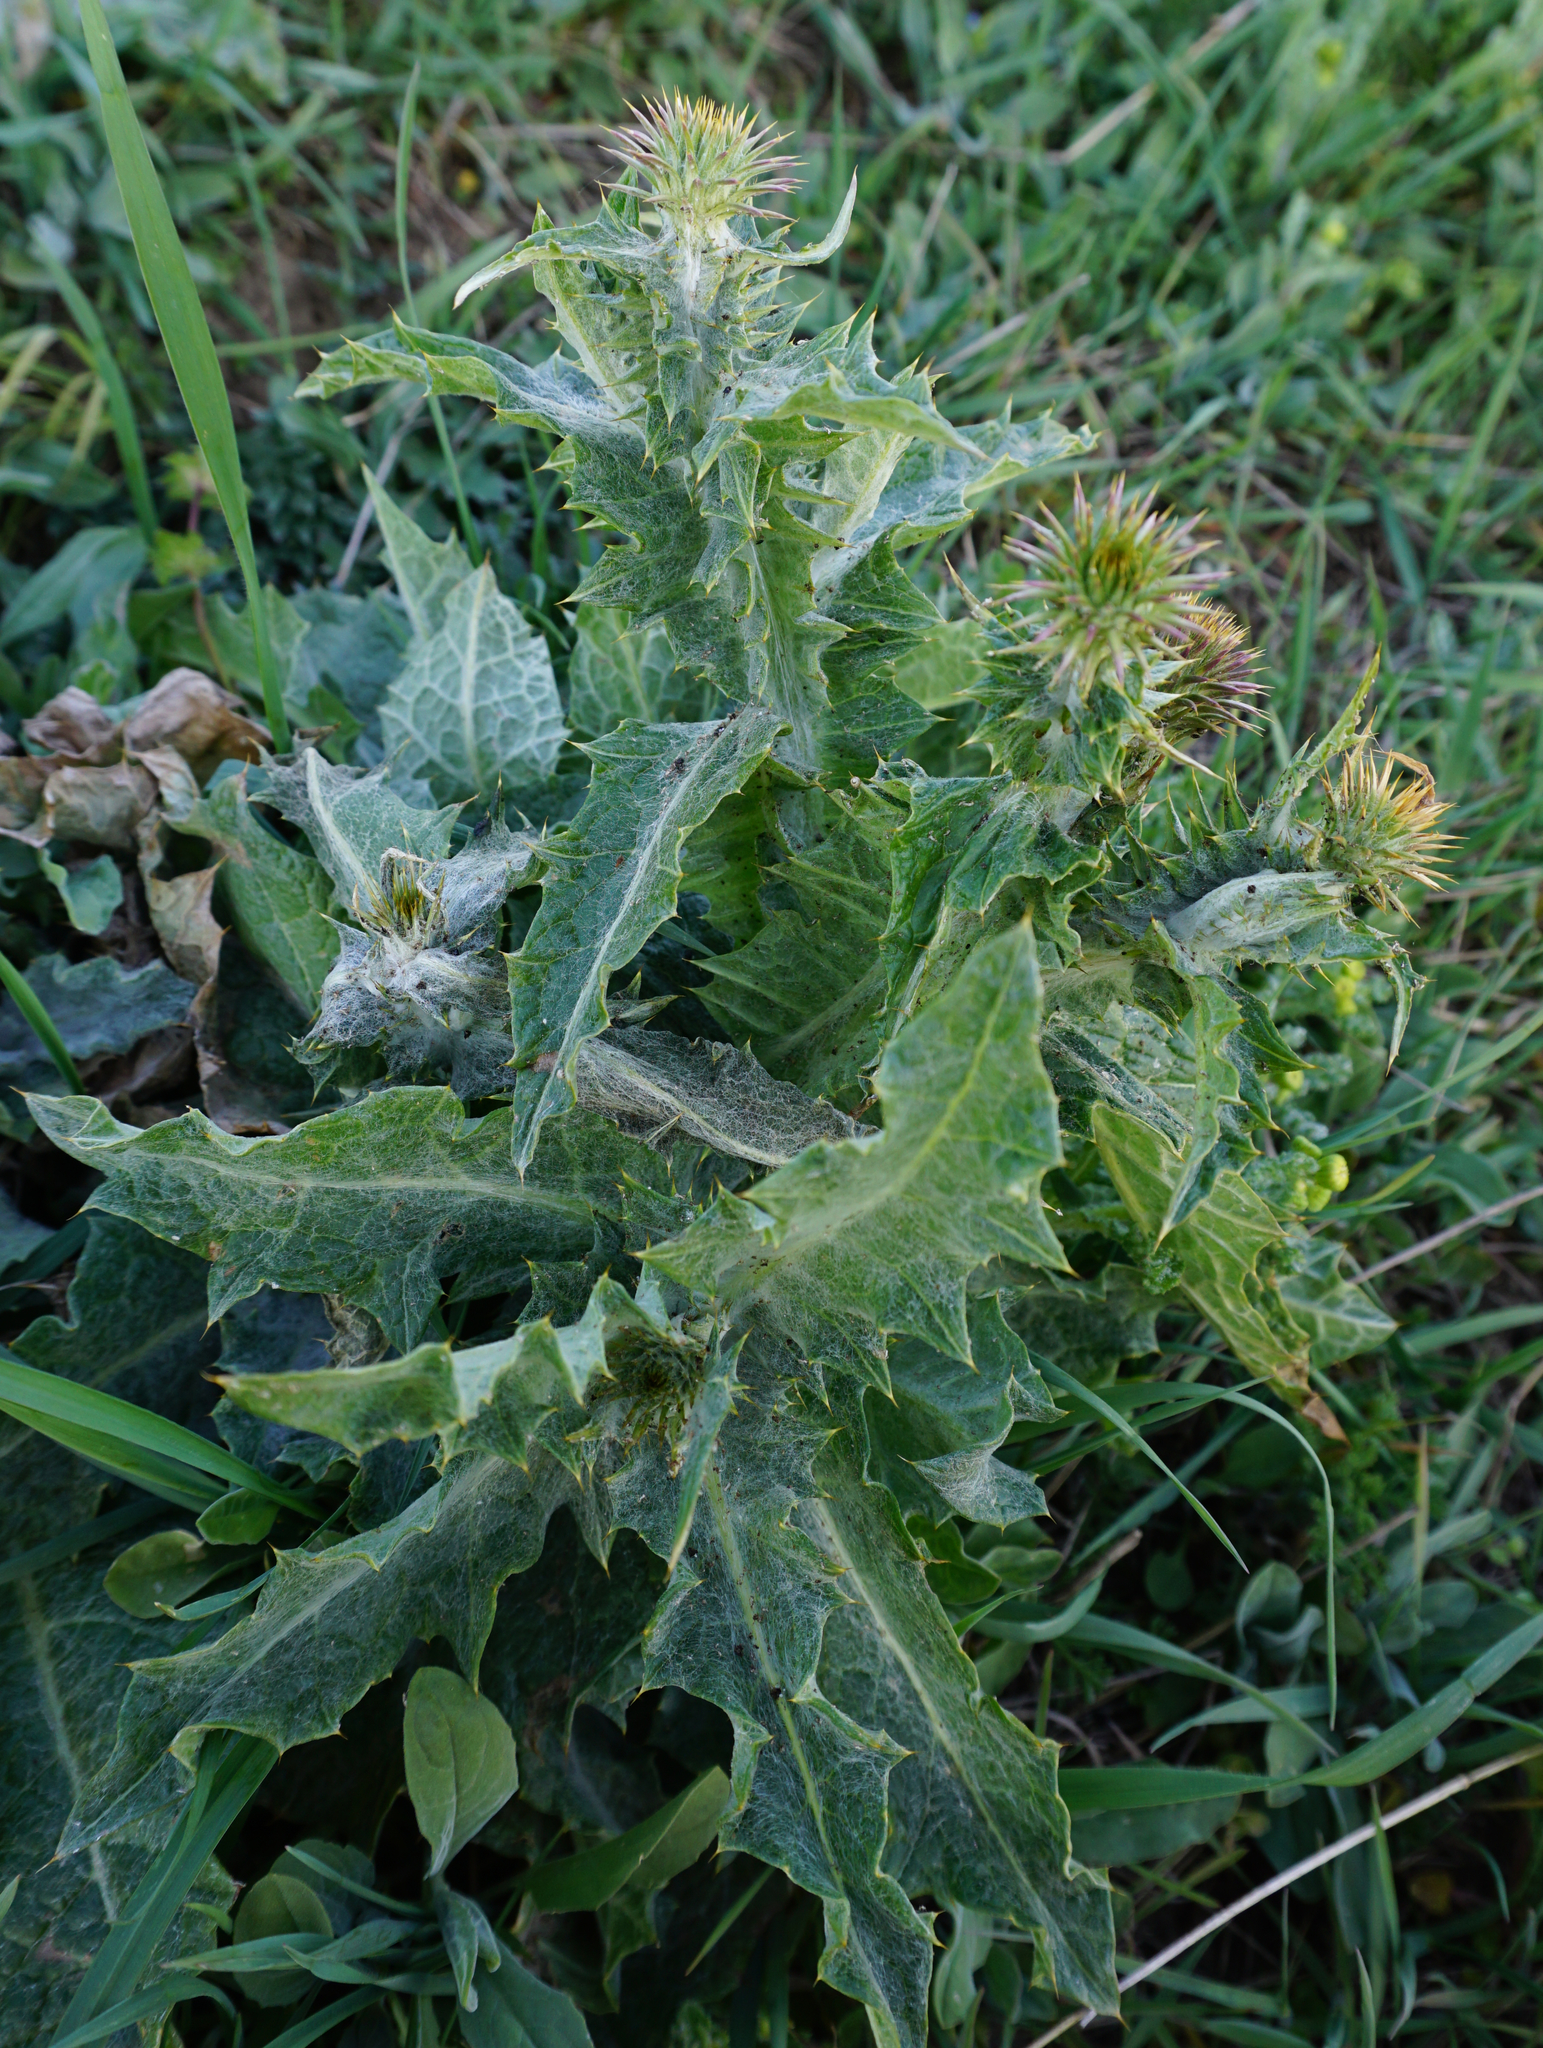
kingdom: Plantae
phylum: Tracheophyta
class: Magnoliopsida
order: Asterales
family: Asteraceae
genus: Onopordum
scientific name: Onopordum acanthium
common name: Scotch thistle
